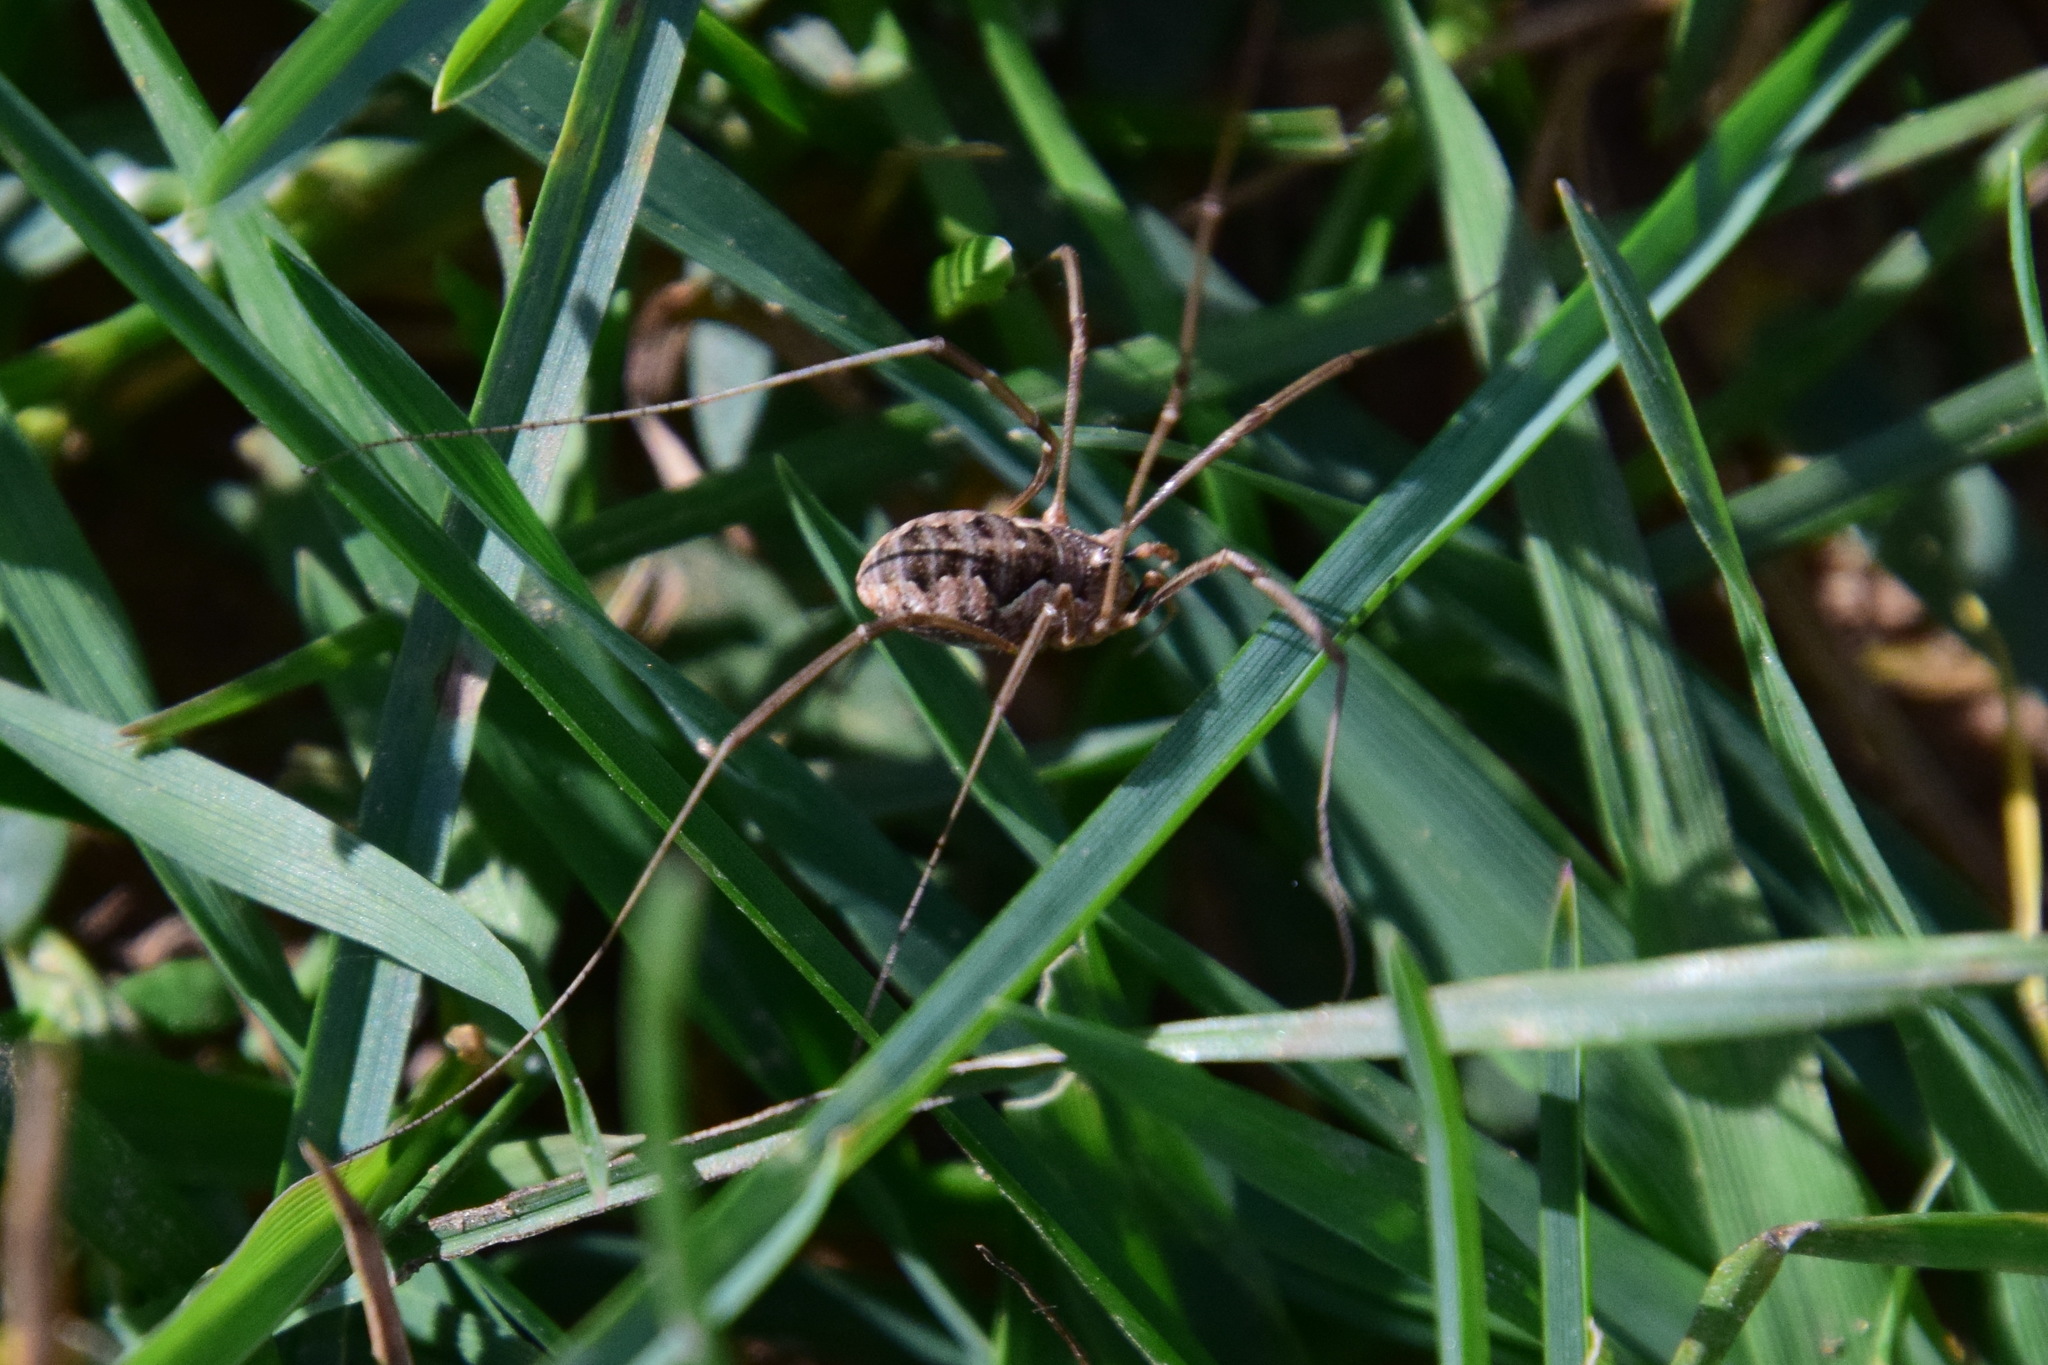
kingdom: Animalia
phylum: Arthropoda
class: Arachnida
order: Opiliones
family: Phalangiidae
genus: Phalangium
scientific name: Phalangium opilio
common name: Daddy longleg
